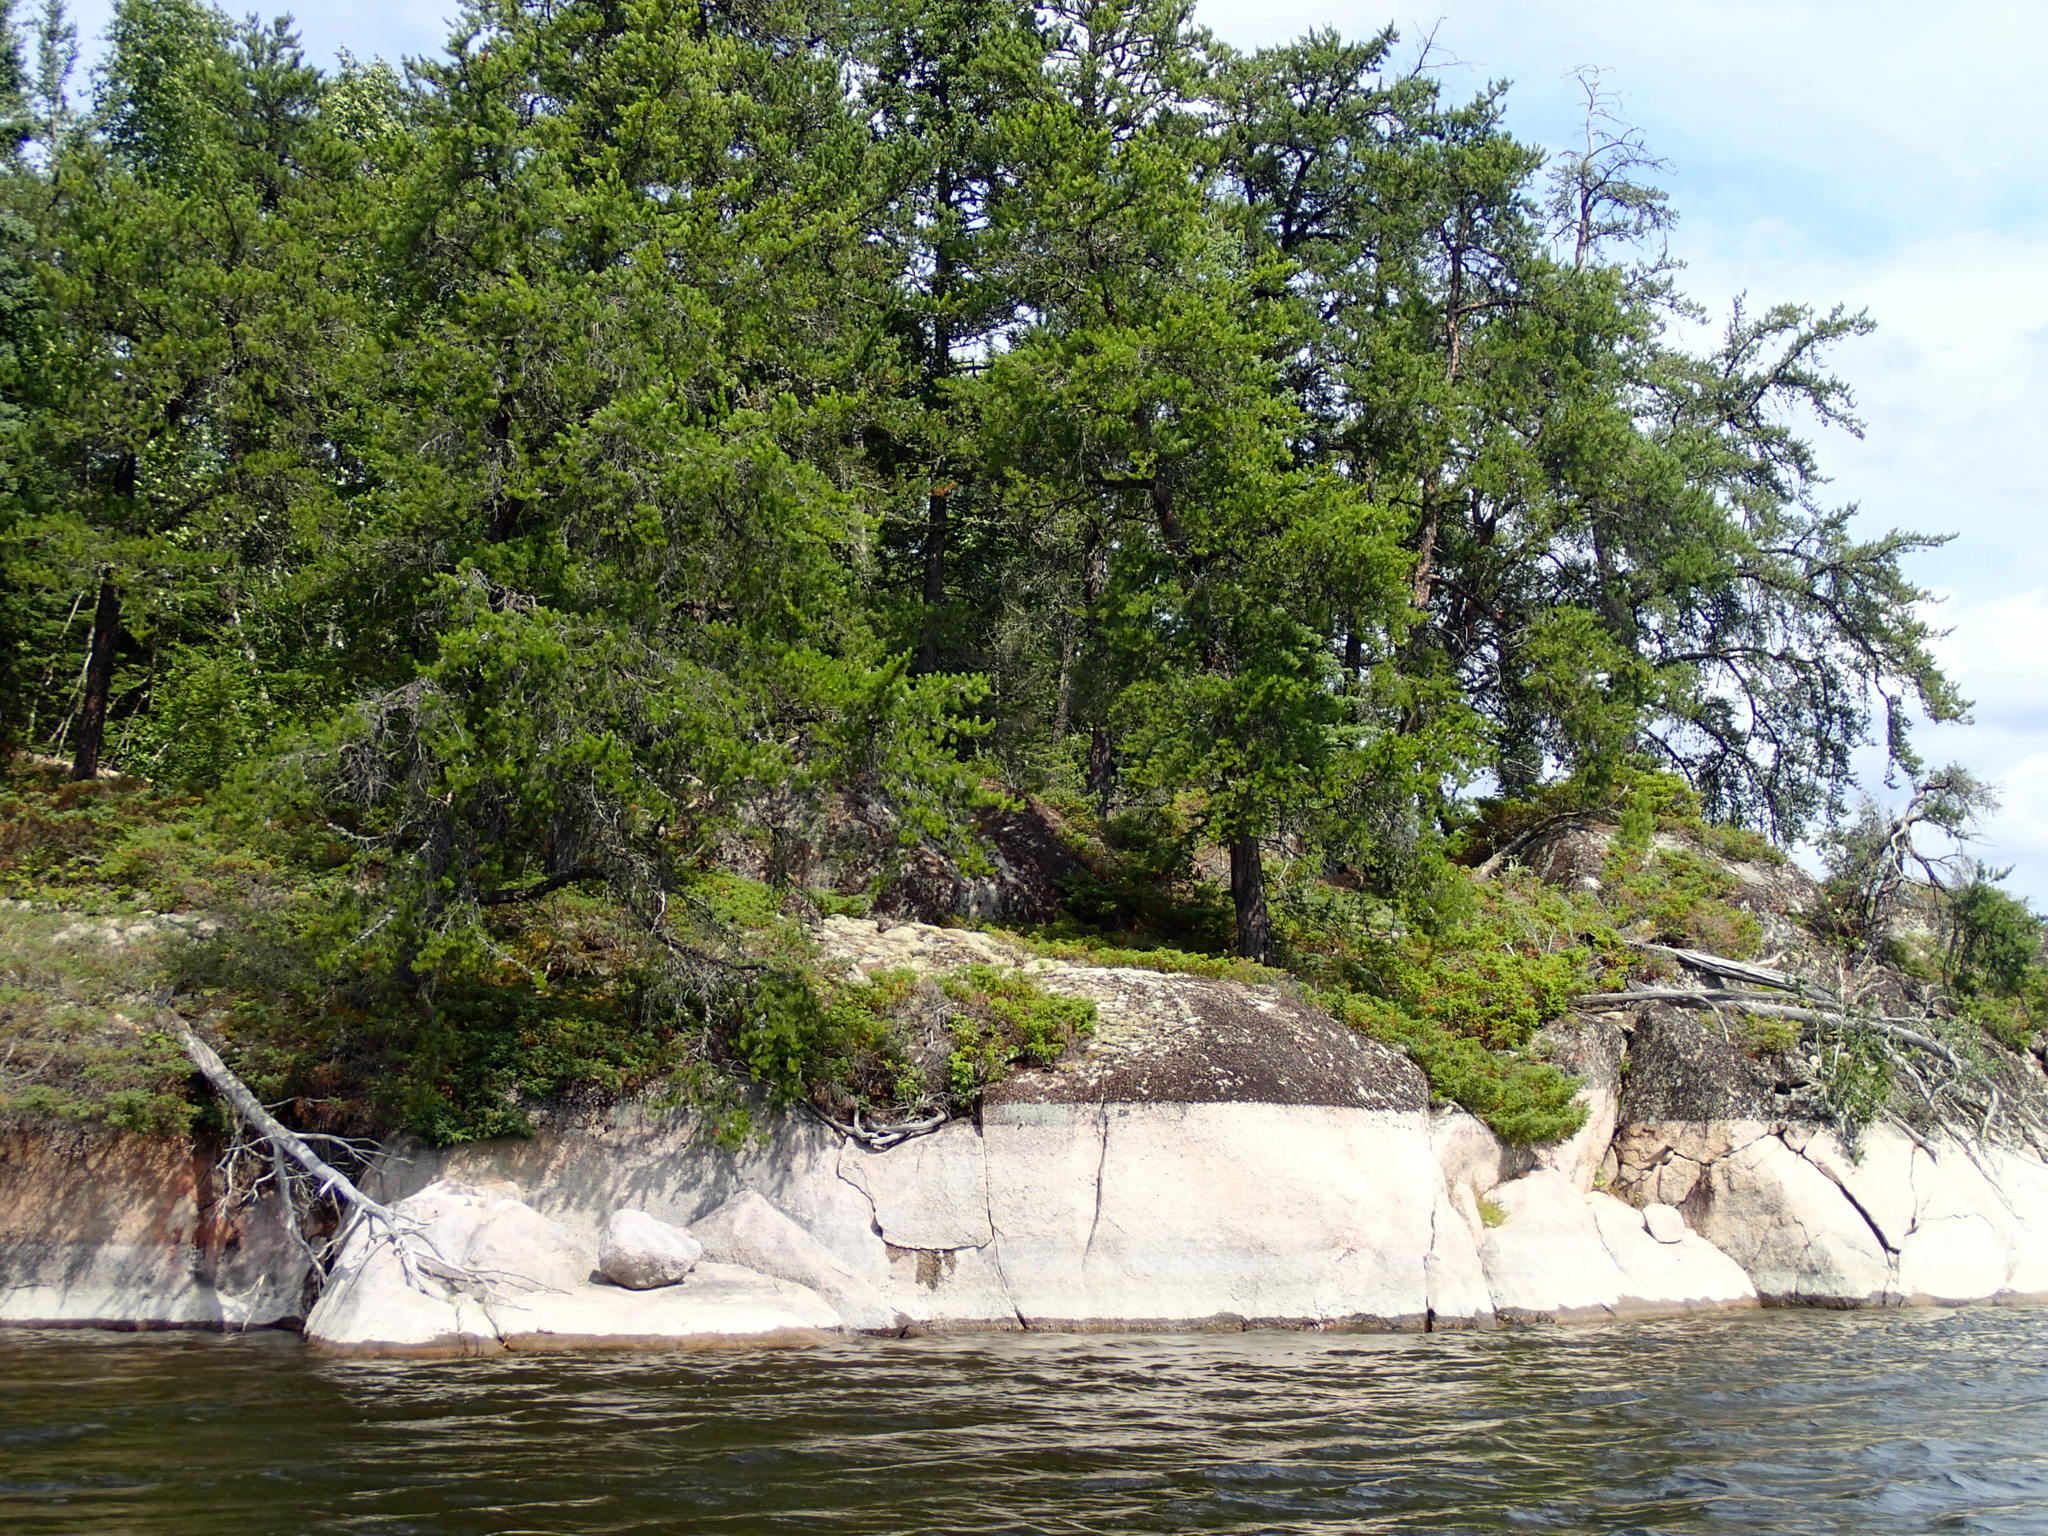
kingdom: Plantae
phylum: Tracheophyta
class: Pinopsida
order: Pinales
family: Pinaceae
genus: Pinus
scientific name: Pinus banksiana
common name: Jack pine
